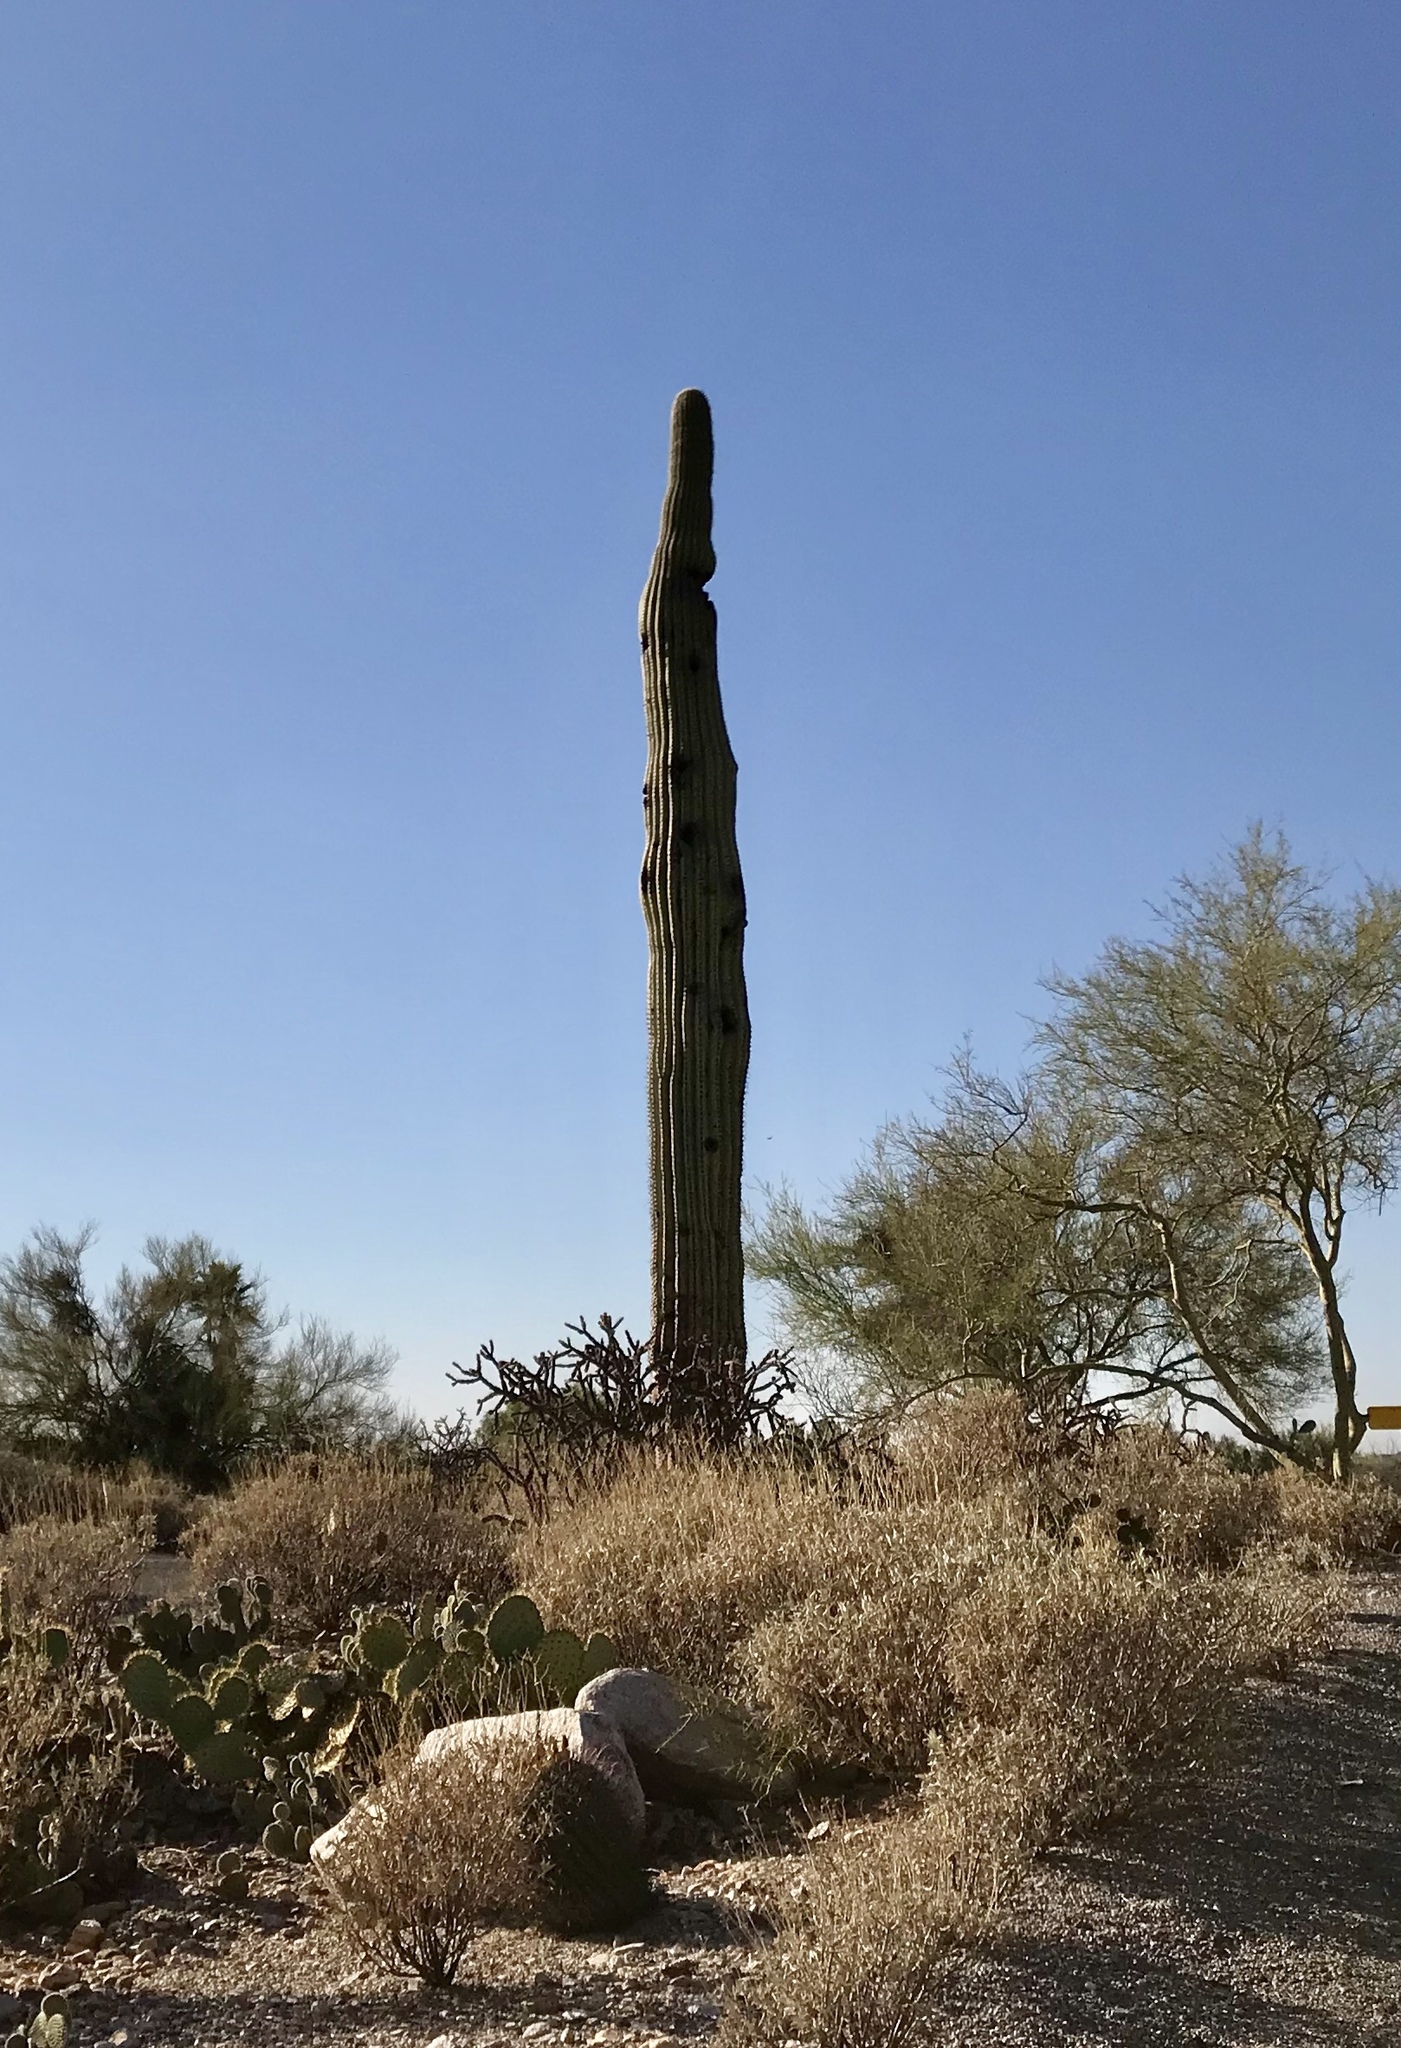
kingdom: Plantae
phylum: Tracheophyta
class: Magnoliopsida
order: Caryophyllales
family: Cactaceae
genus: Carnegiea
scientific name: Carnegiea gigantea
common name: Saguaro
